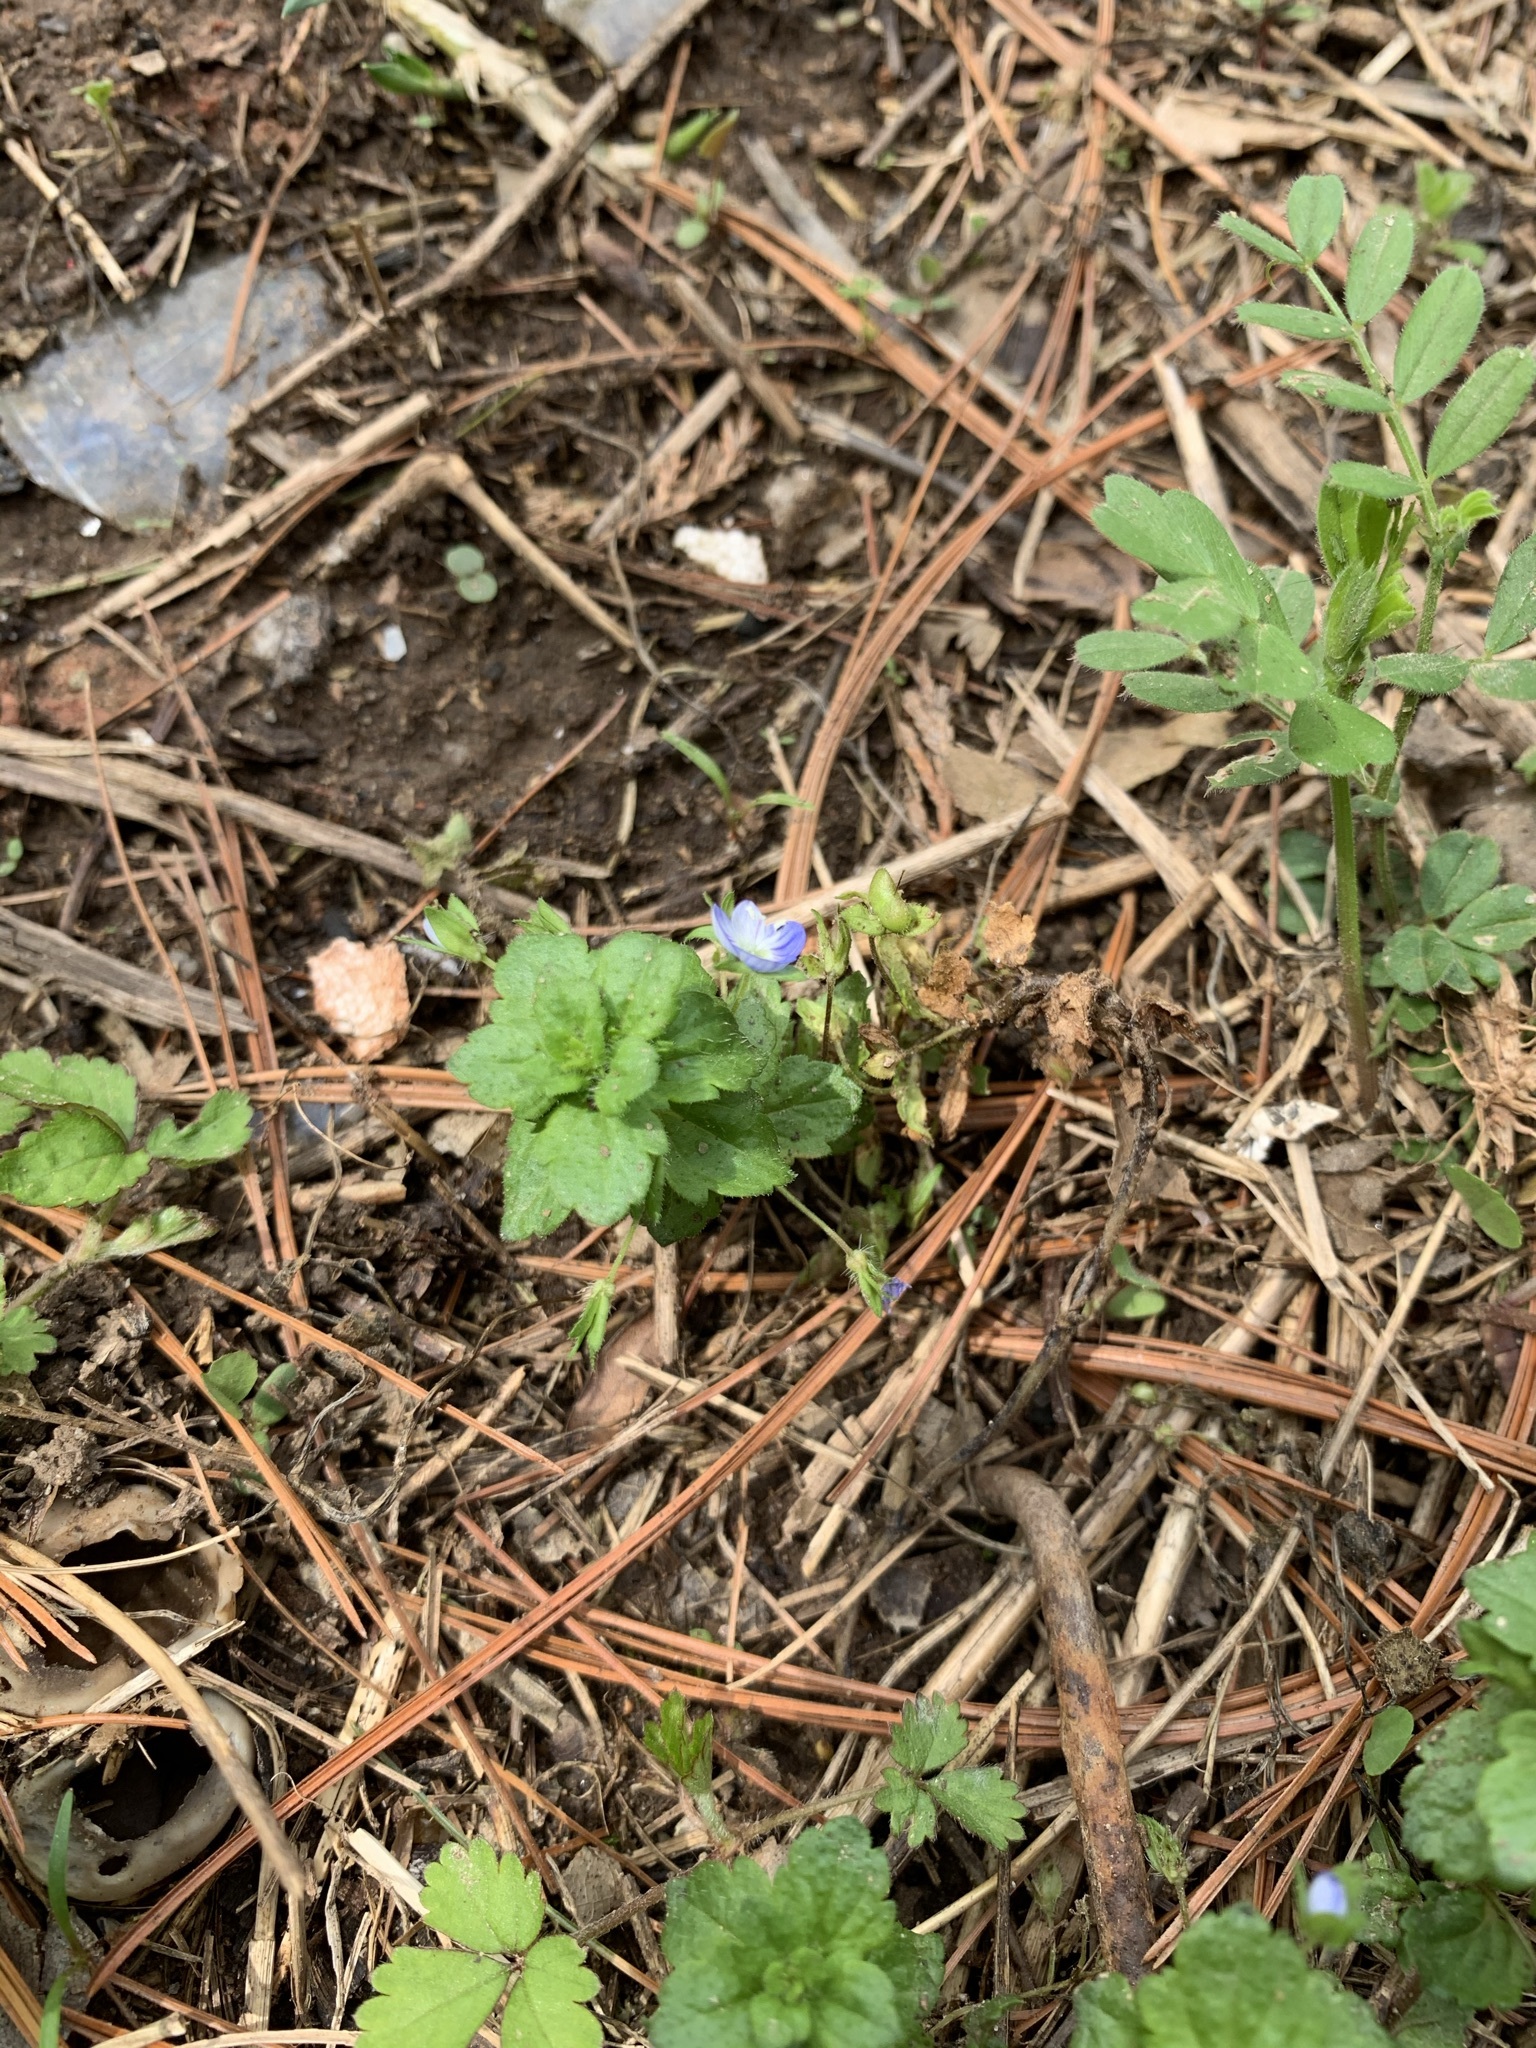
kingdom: Plantae
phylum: Tracheophyta
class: Magnoliopsida
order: Lamiales
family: Plantaginaceae
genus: Veronica
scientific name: Veronica persica
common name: Common field-speedwell
